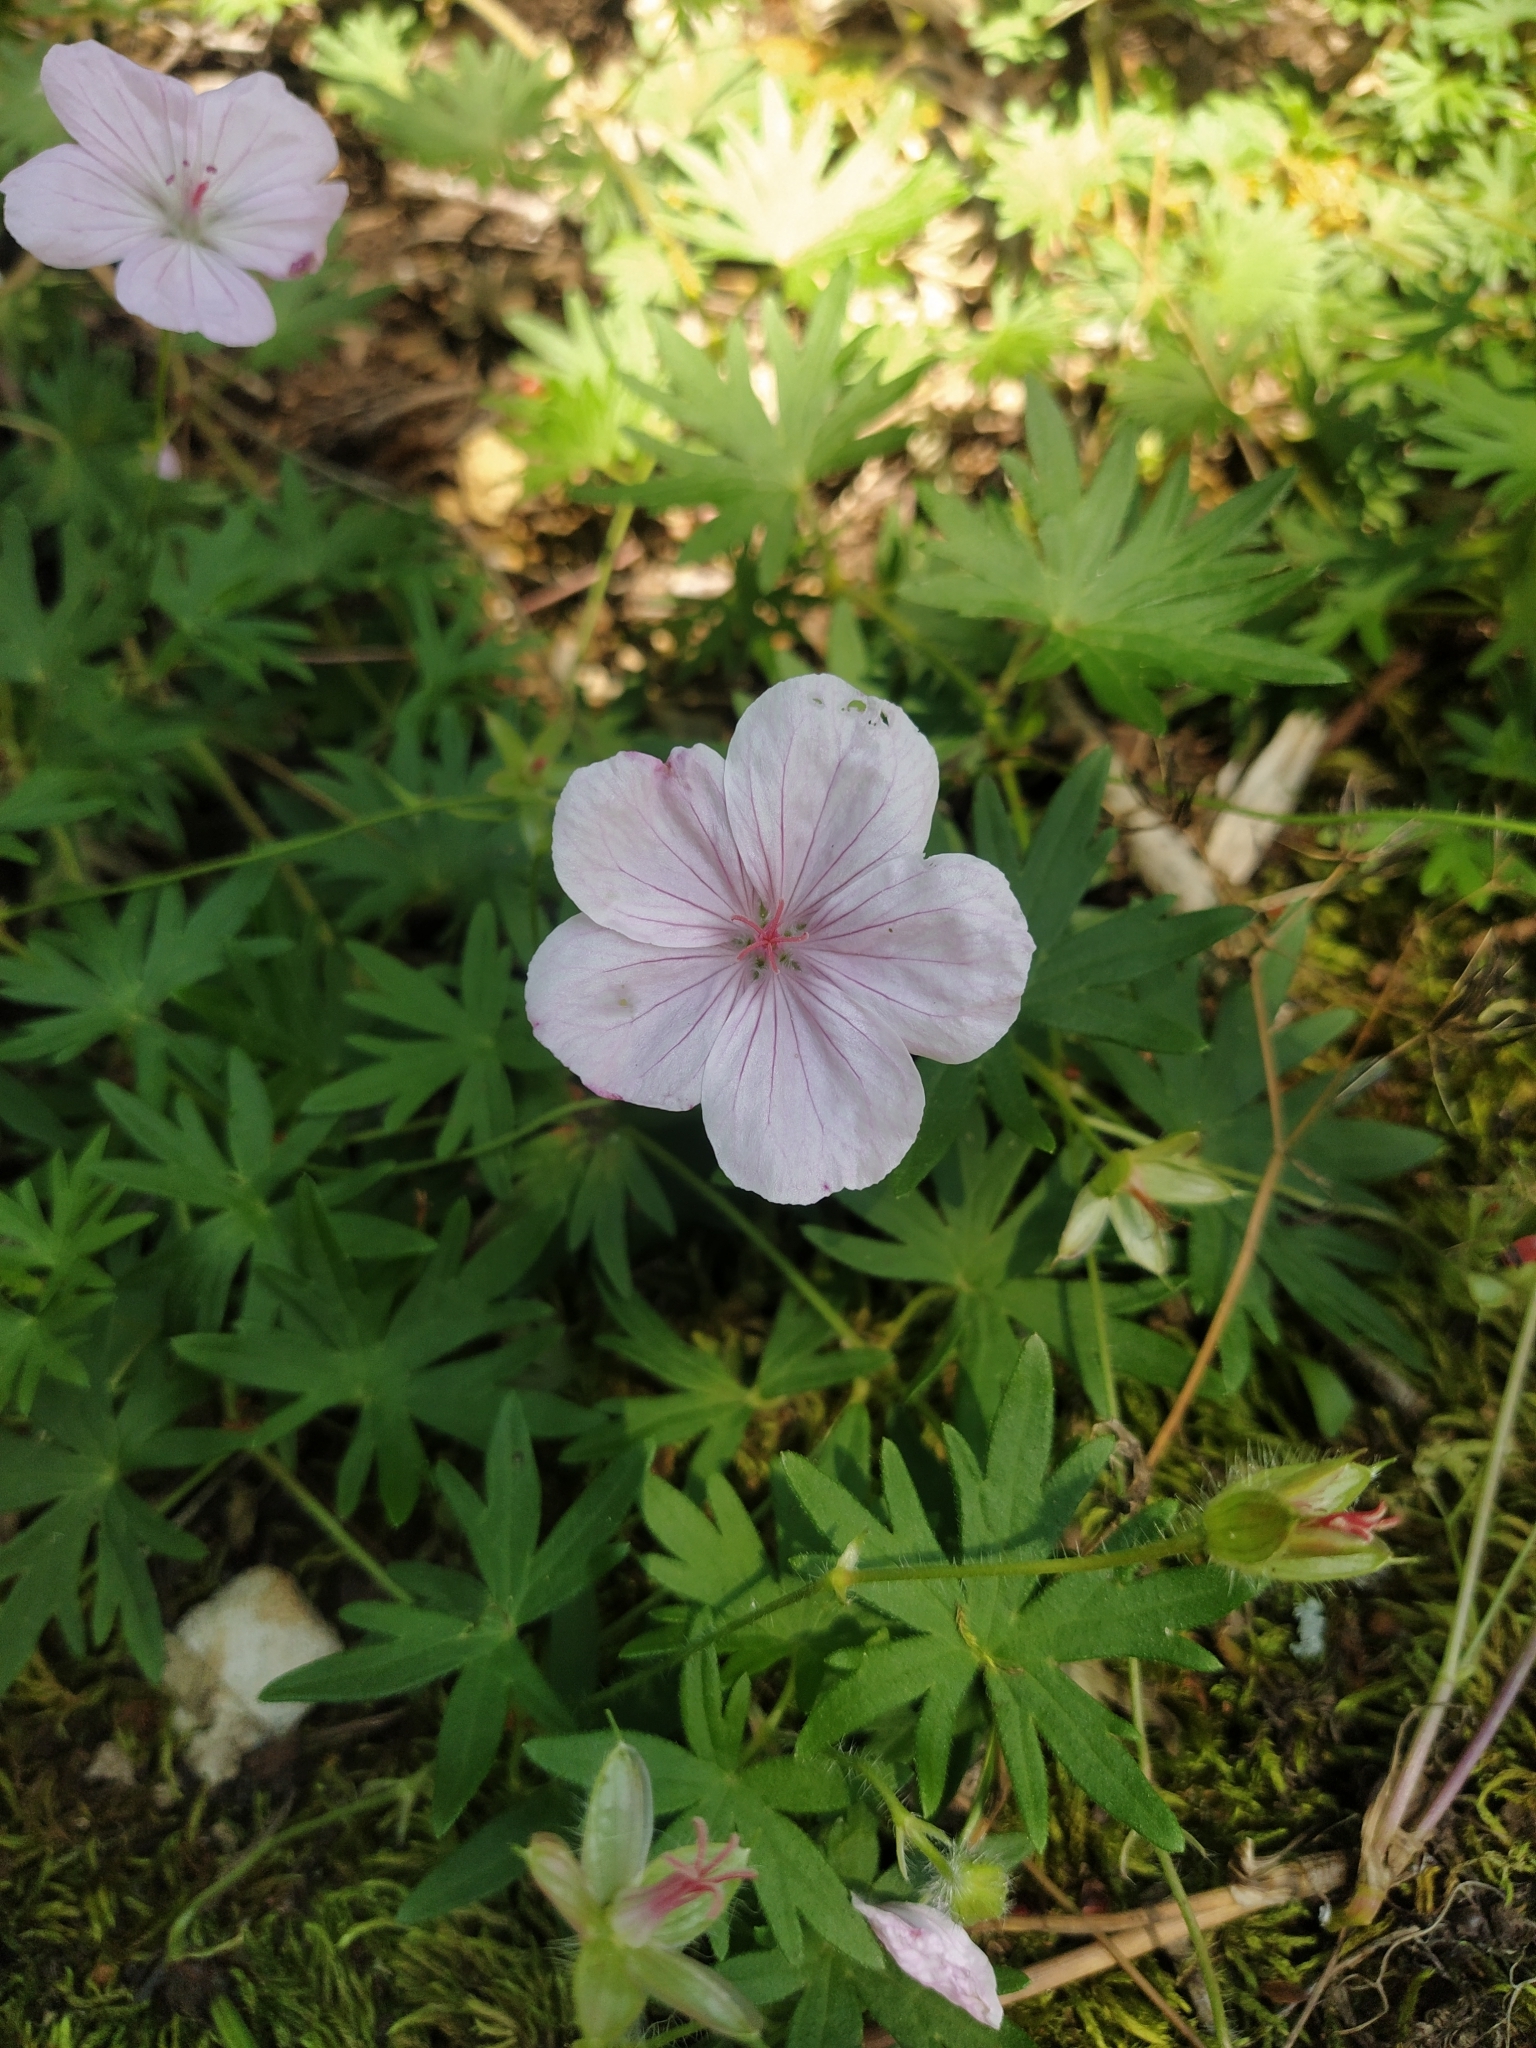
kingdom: Plantae
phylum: Tracheophyta
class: Magnoliopsida
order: Geraniales
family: Geraniaceae
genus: Geranium
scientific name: Geranium sanguineum
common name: Bloody crane's-bill
